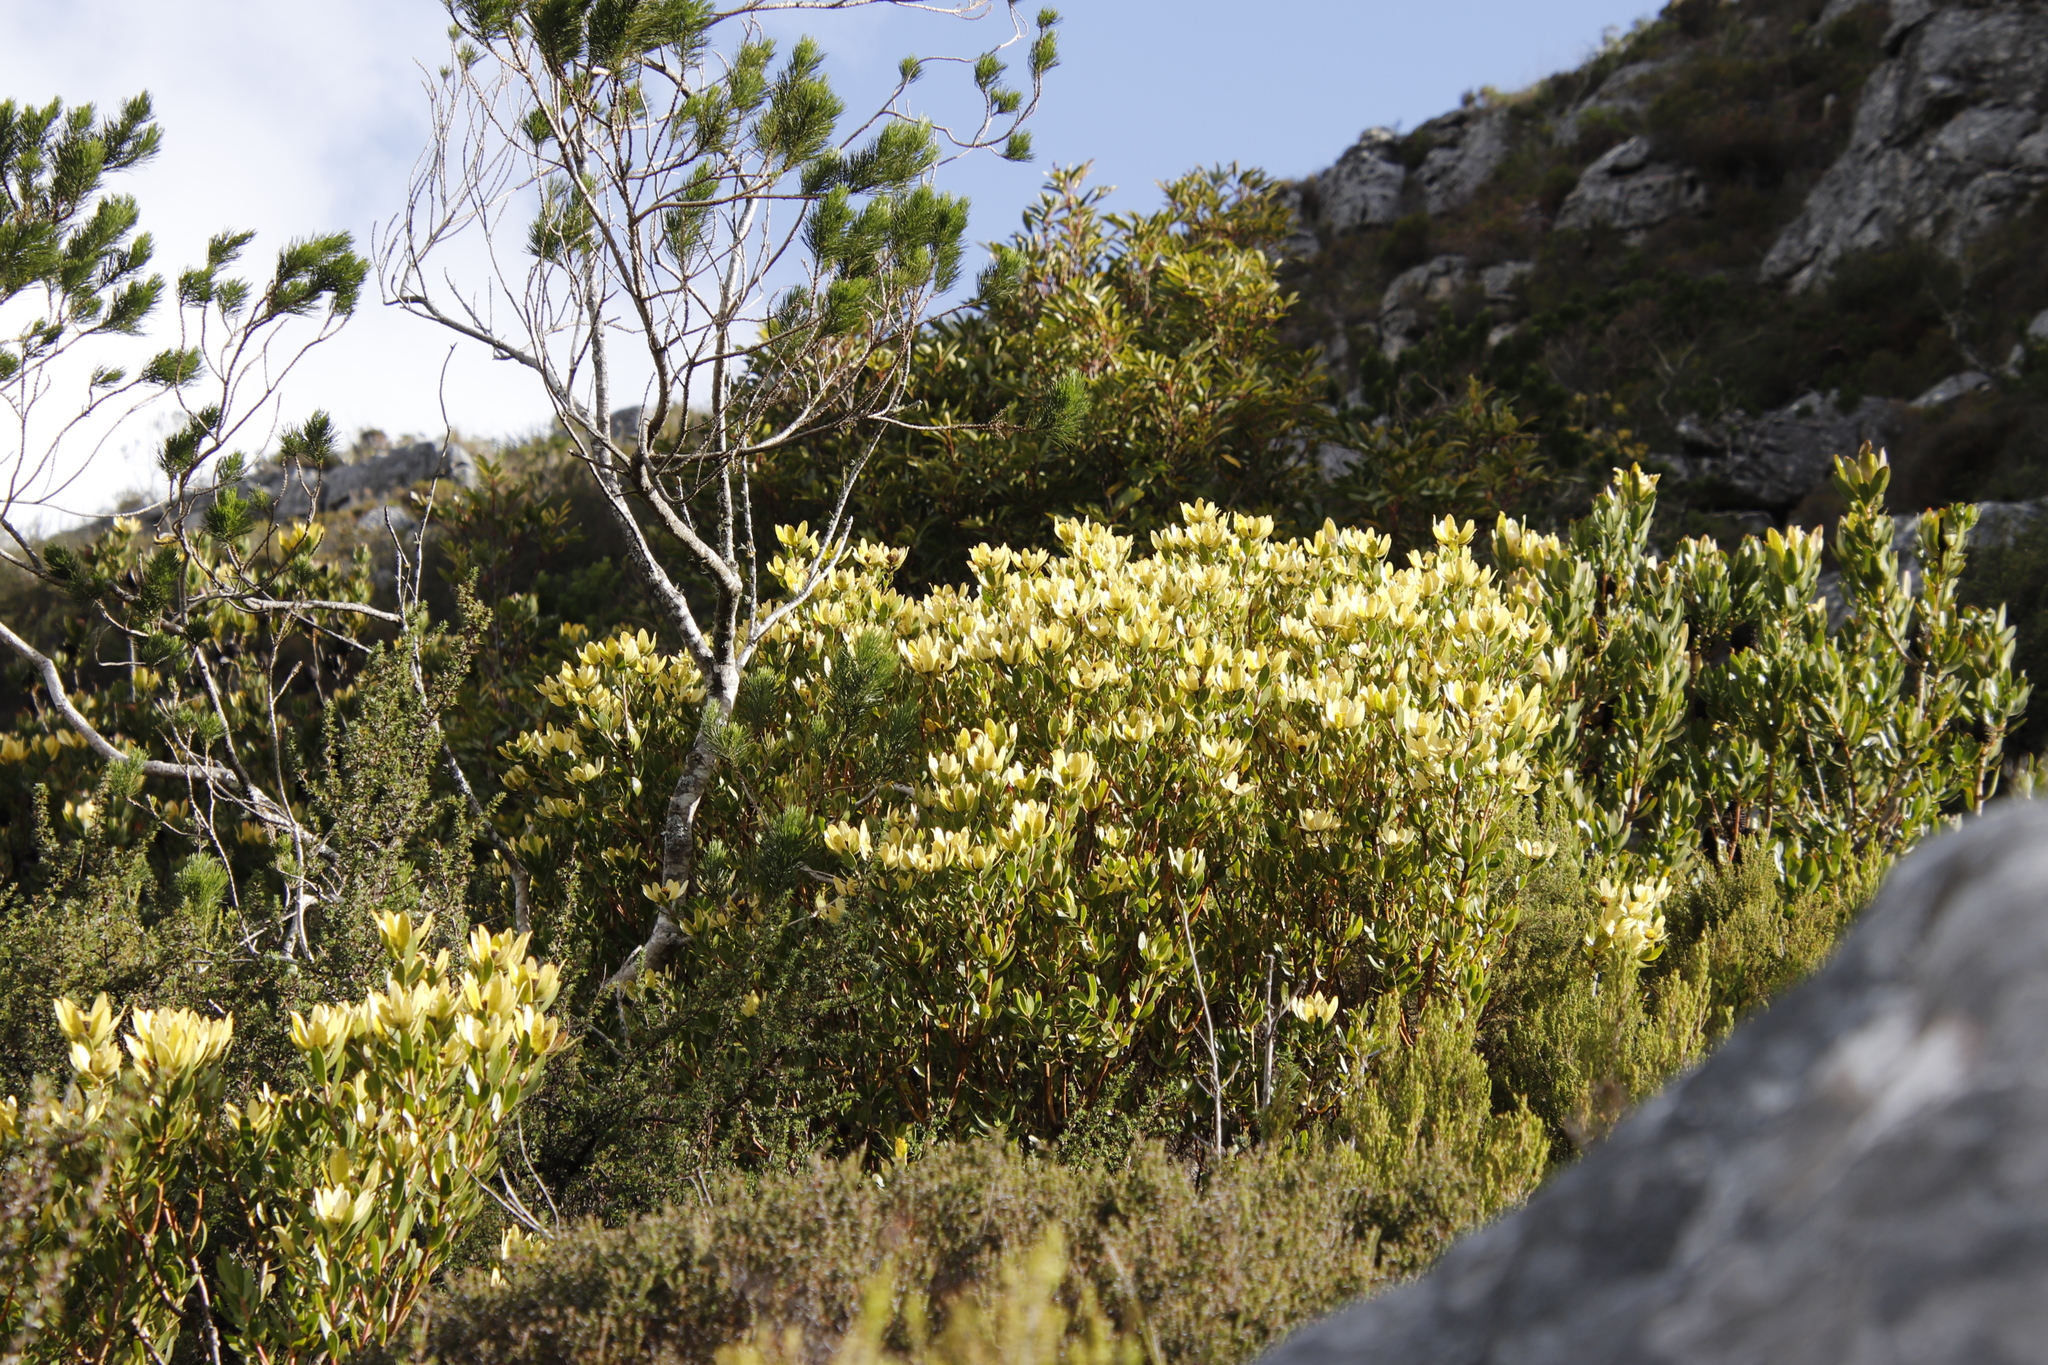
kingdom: Plantae
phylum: Tracheophyta
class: Magnoliopsida
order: Proteales
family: Proteaceae
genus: Leucadendron
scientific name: Leucadendron strobilinum
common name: Mountain rose
